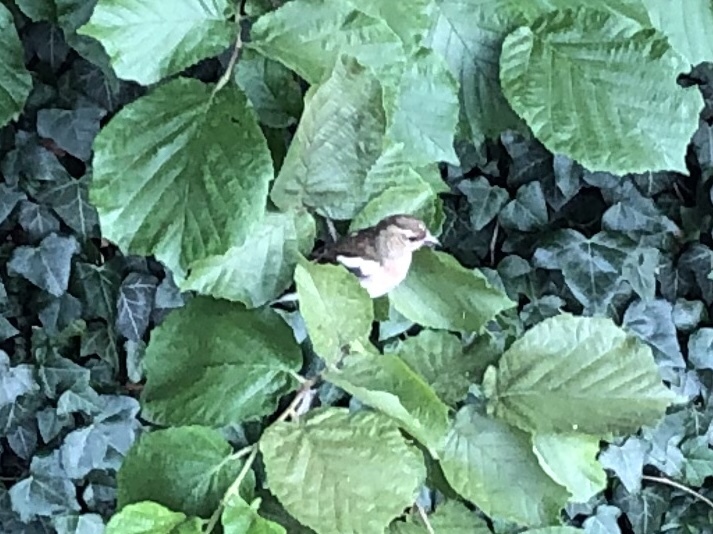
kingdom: Animalia
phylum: Chordata
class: Aves
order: Passeriformes
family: Fringillidae
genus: Fringilla
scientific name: Fringilla coelebs
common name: Common chaffinch
